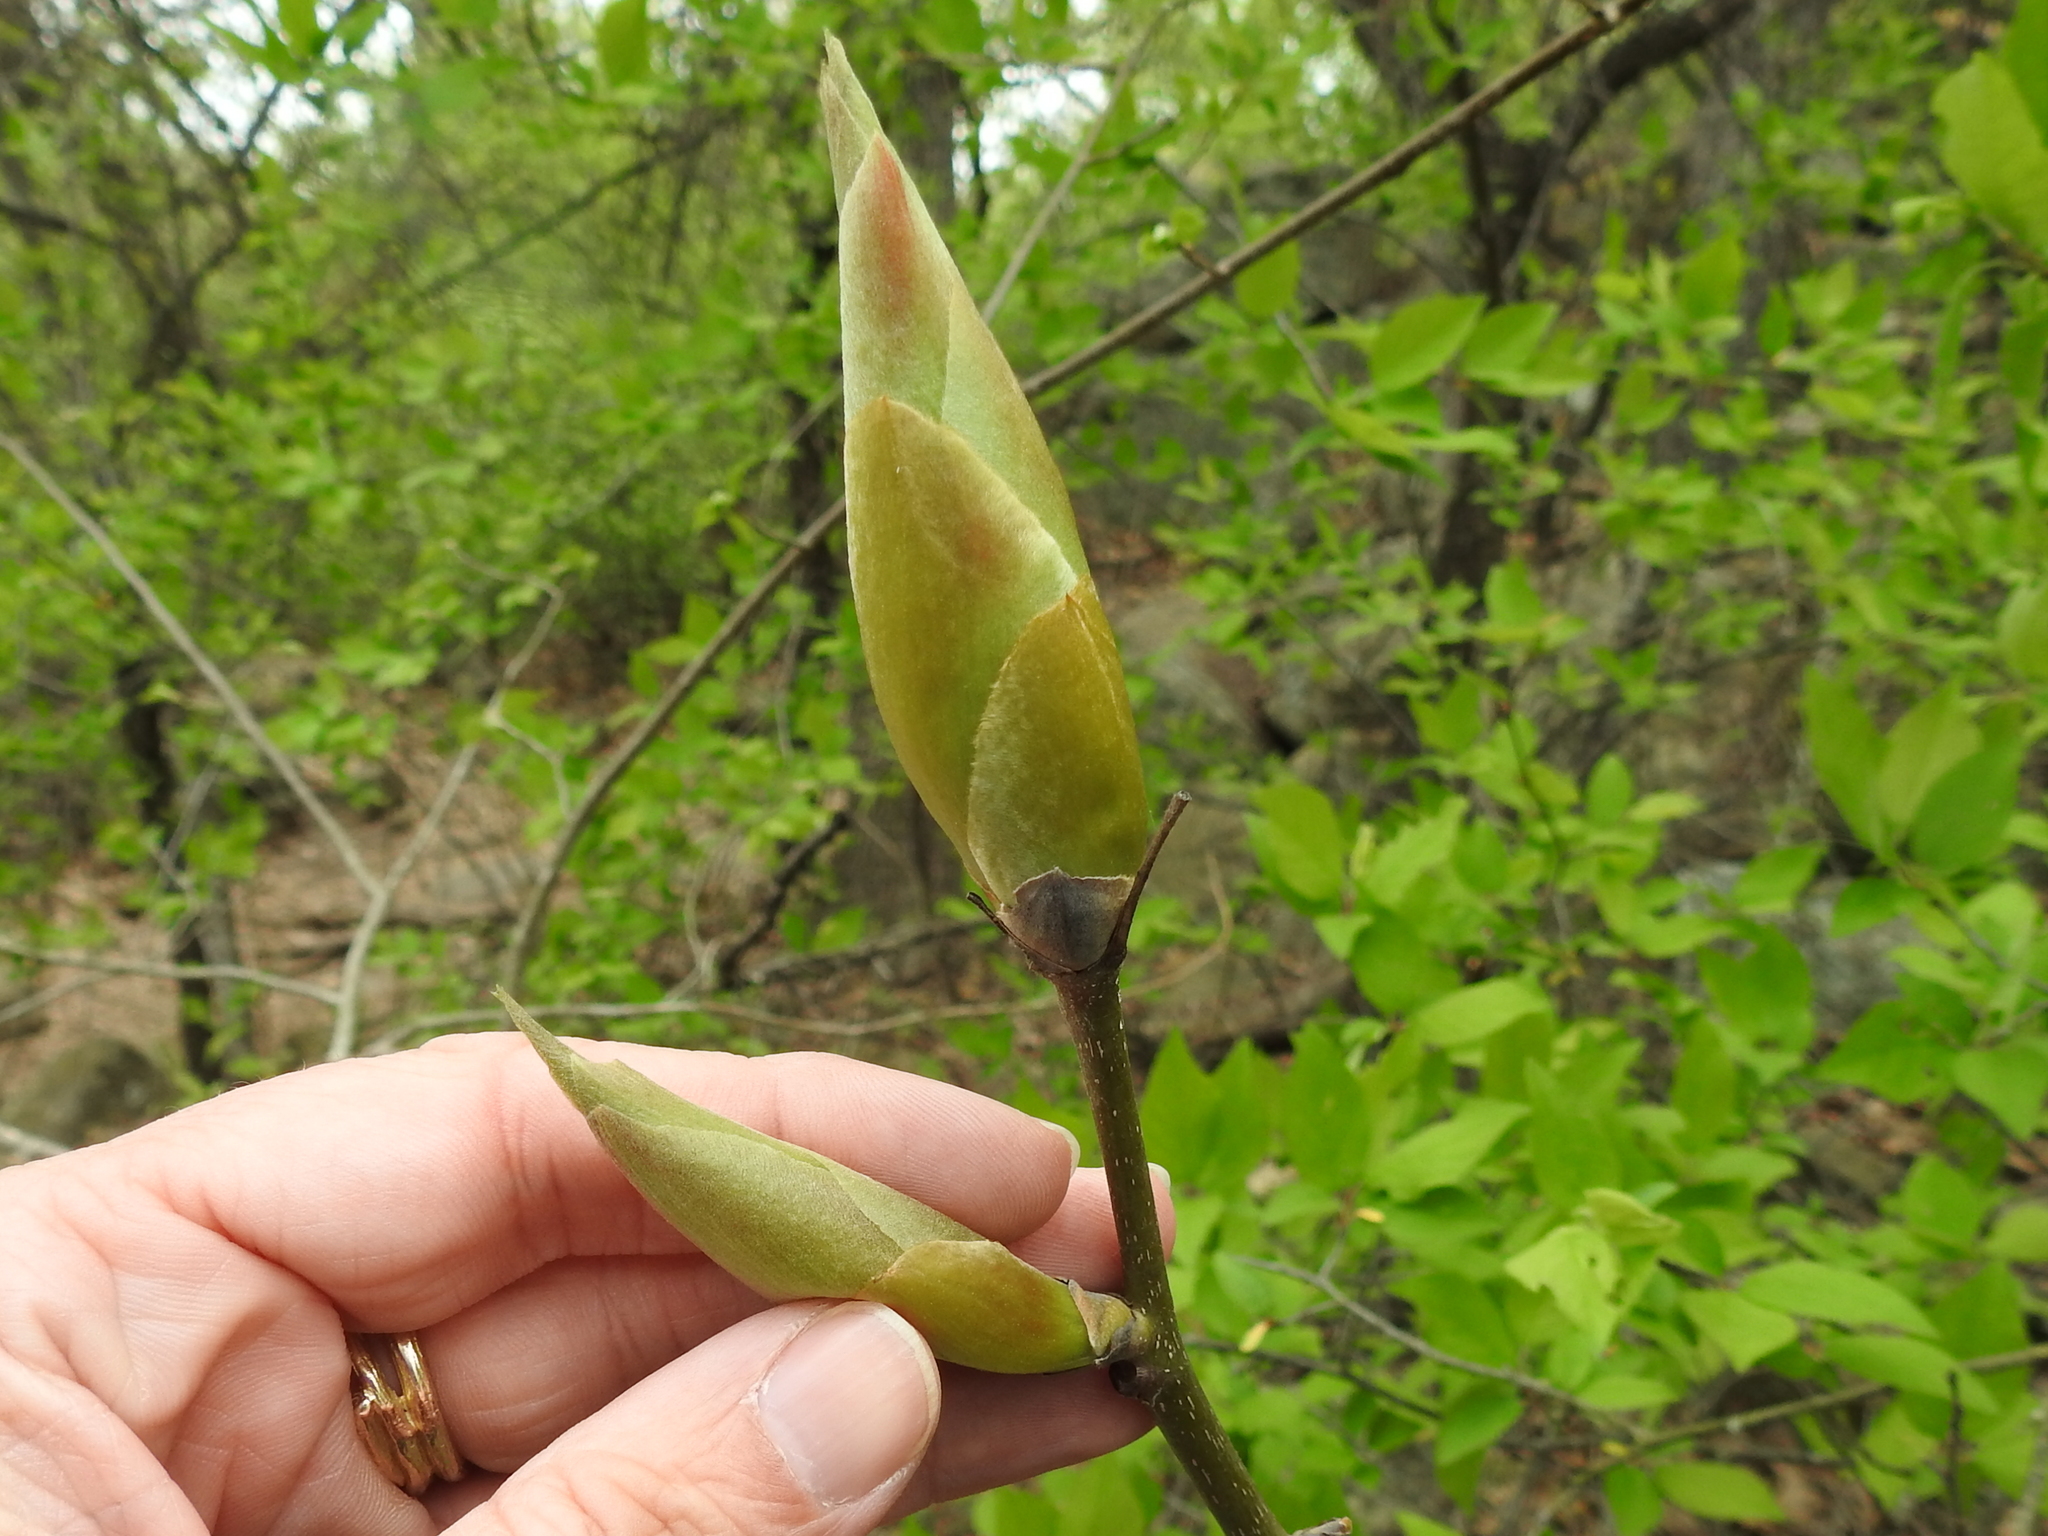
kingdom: Plantae
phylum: Tracheophyta
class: Magnoliopsida
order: Fagales
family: Juglandaceae
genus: Carya
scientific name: Carya ovata
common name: Shagbark hickory
